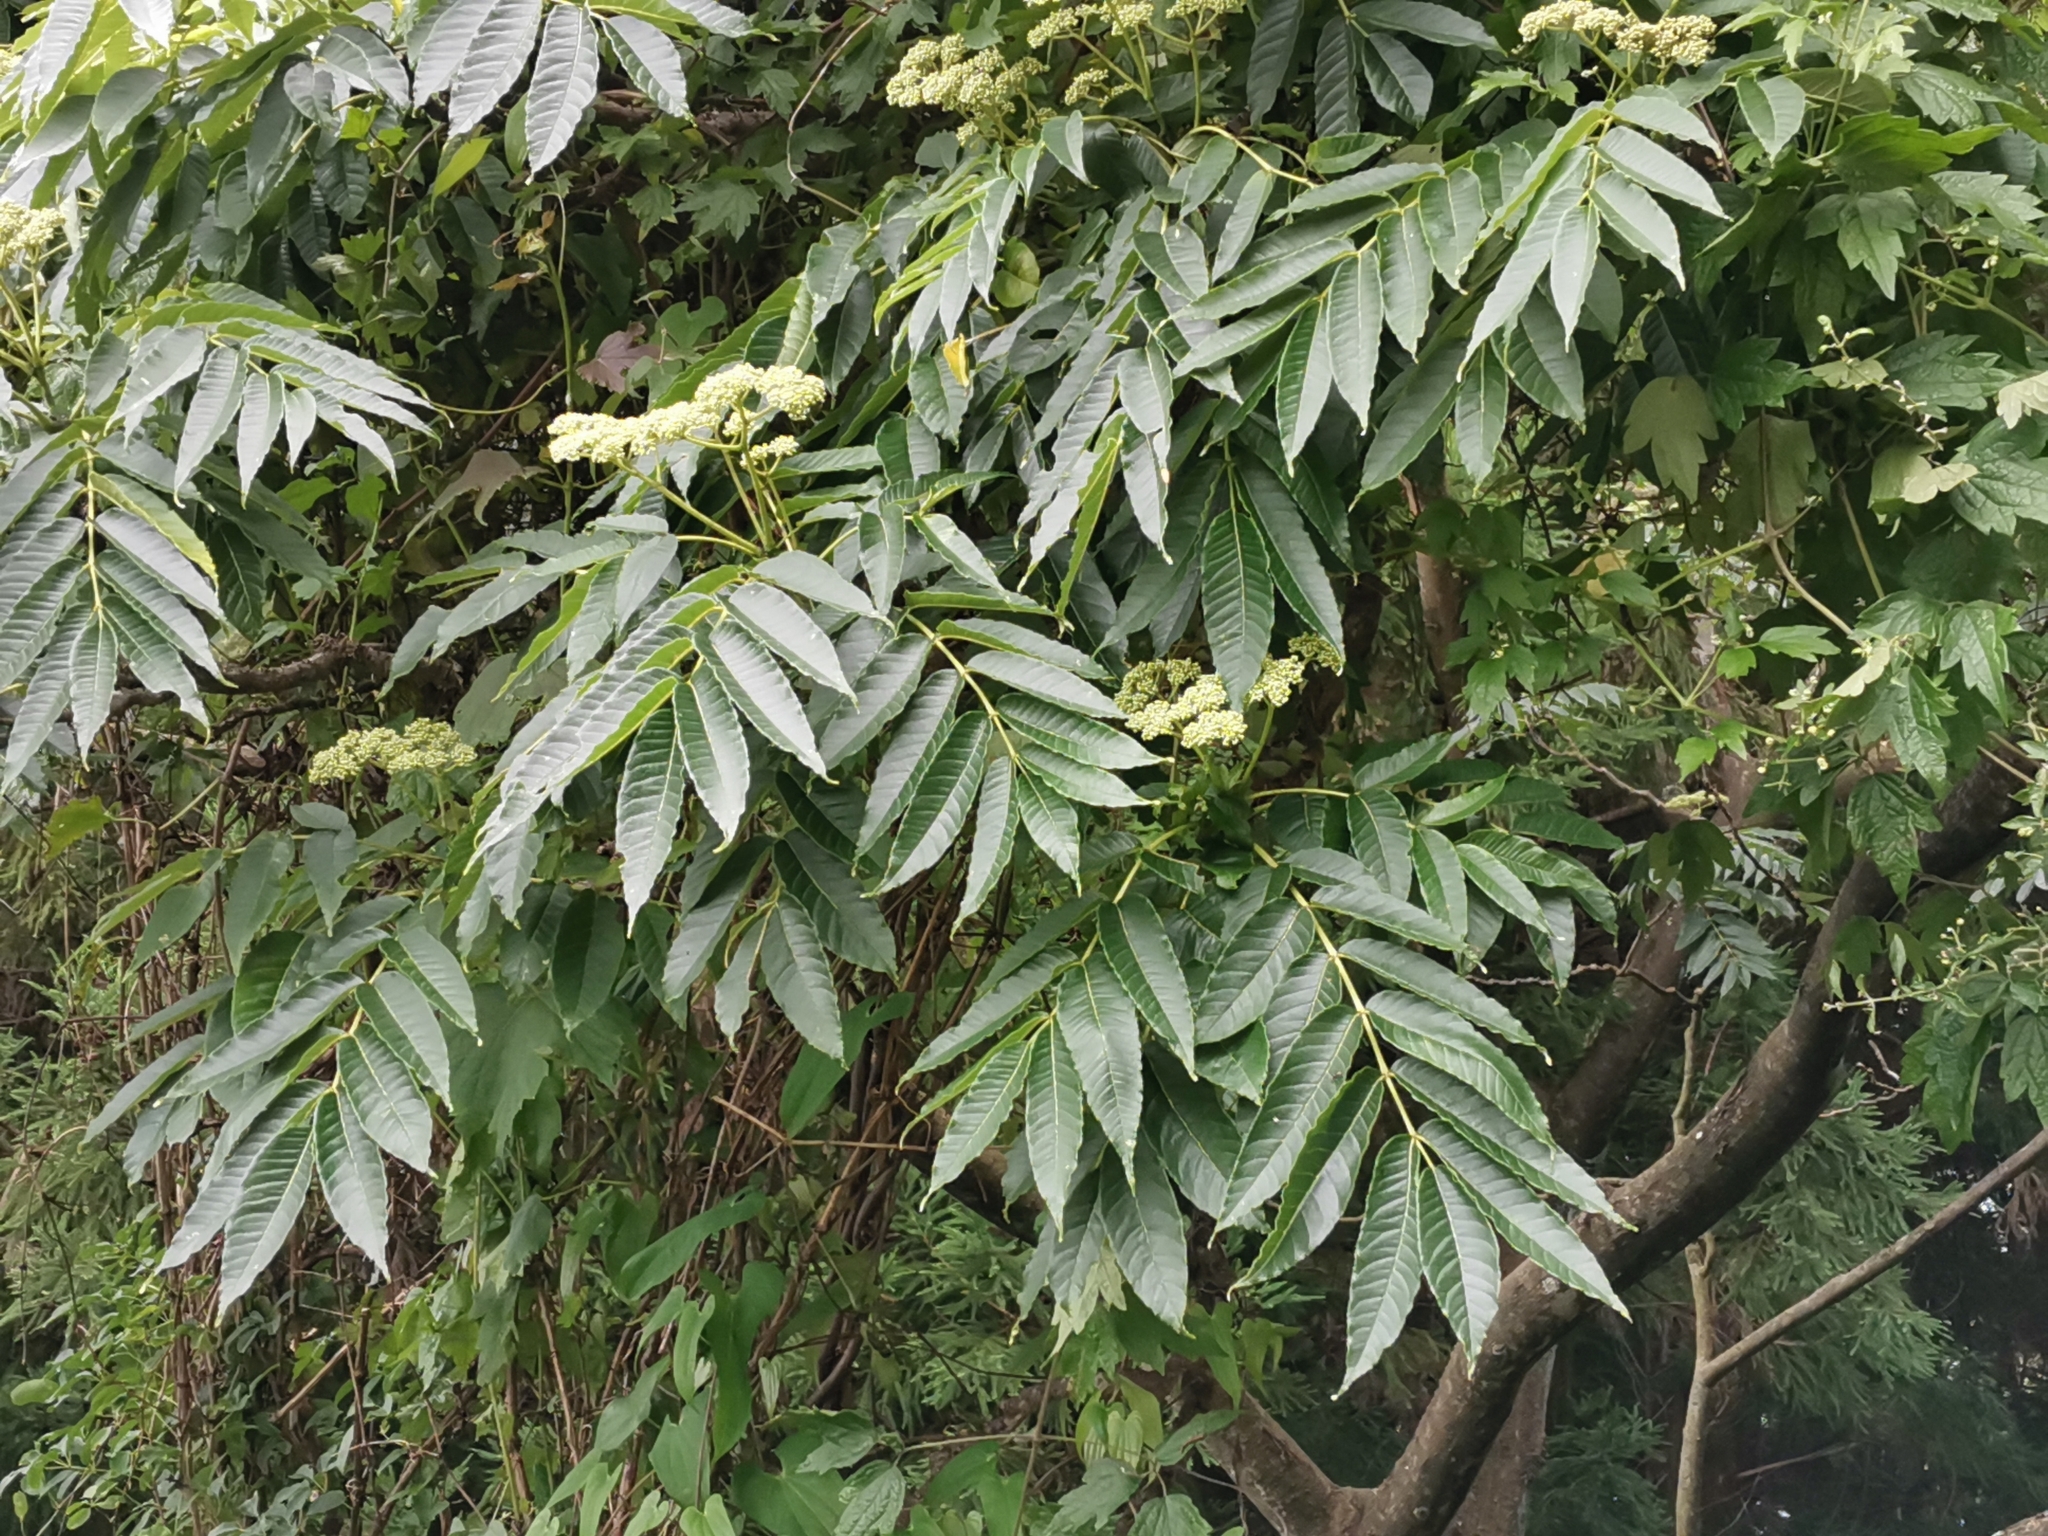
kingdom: Plantae
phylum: Tracheophyta
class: Magnoliopsida
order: Sapindales
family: Rutaceae
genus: Zanthoxylum
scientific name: Zanthoxylum ailanthoides
